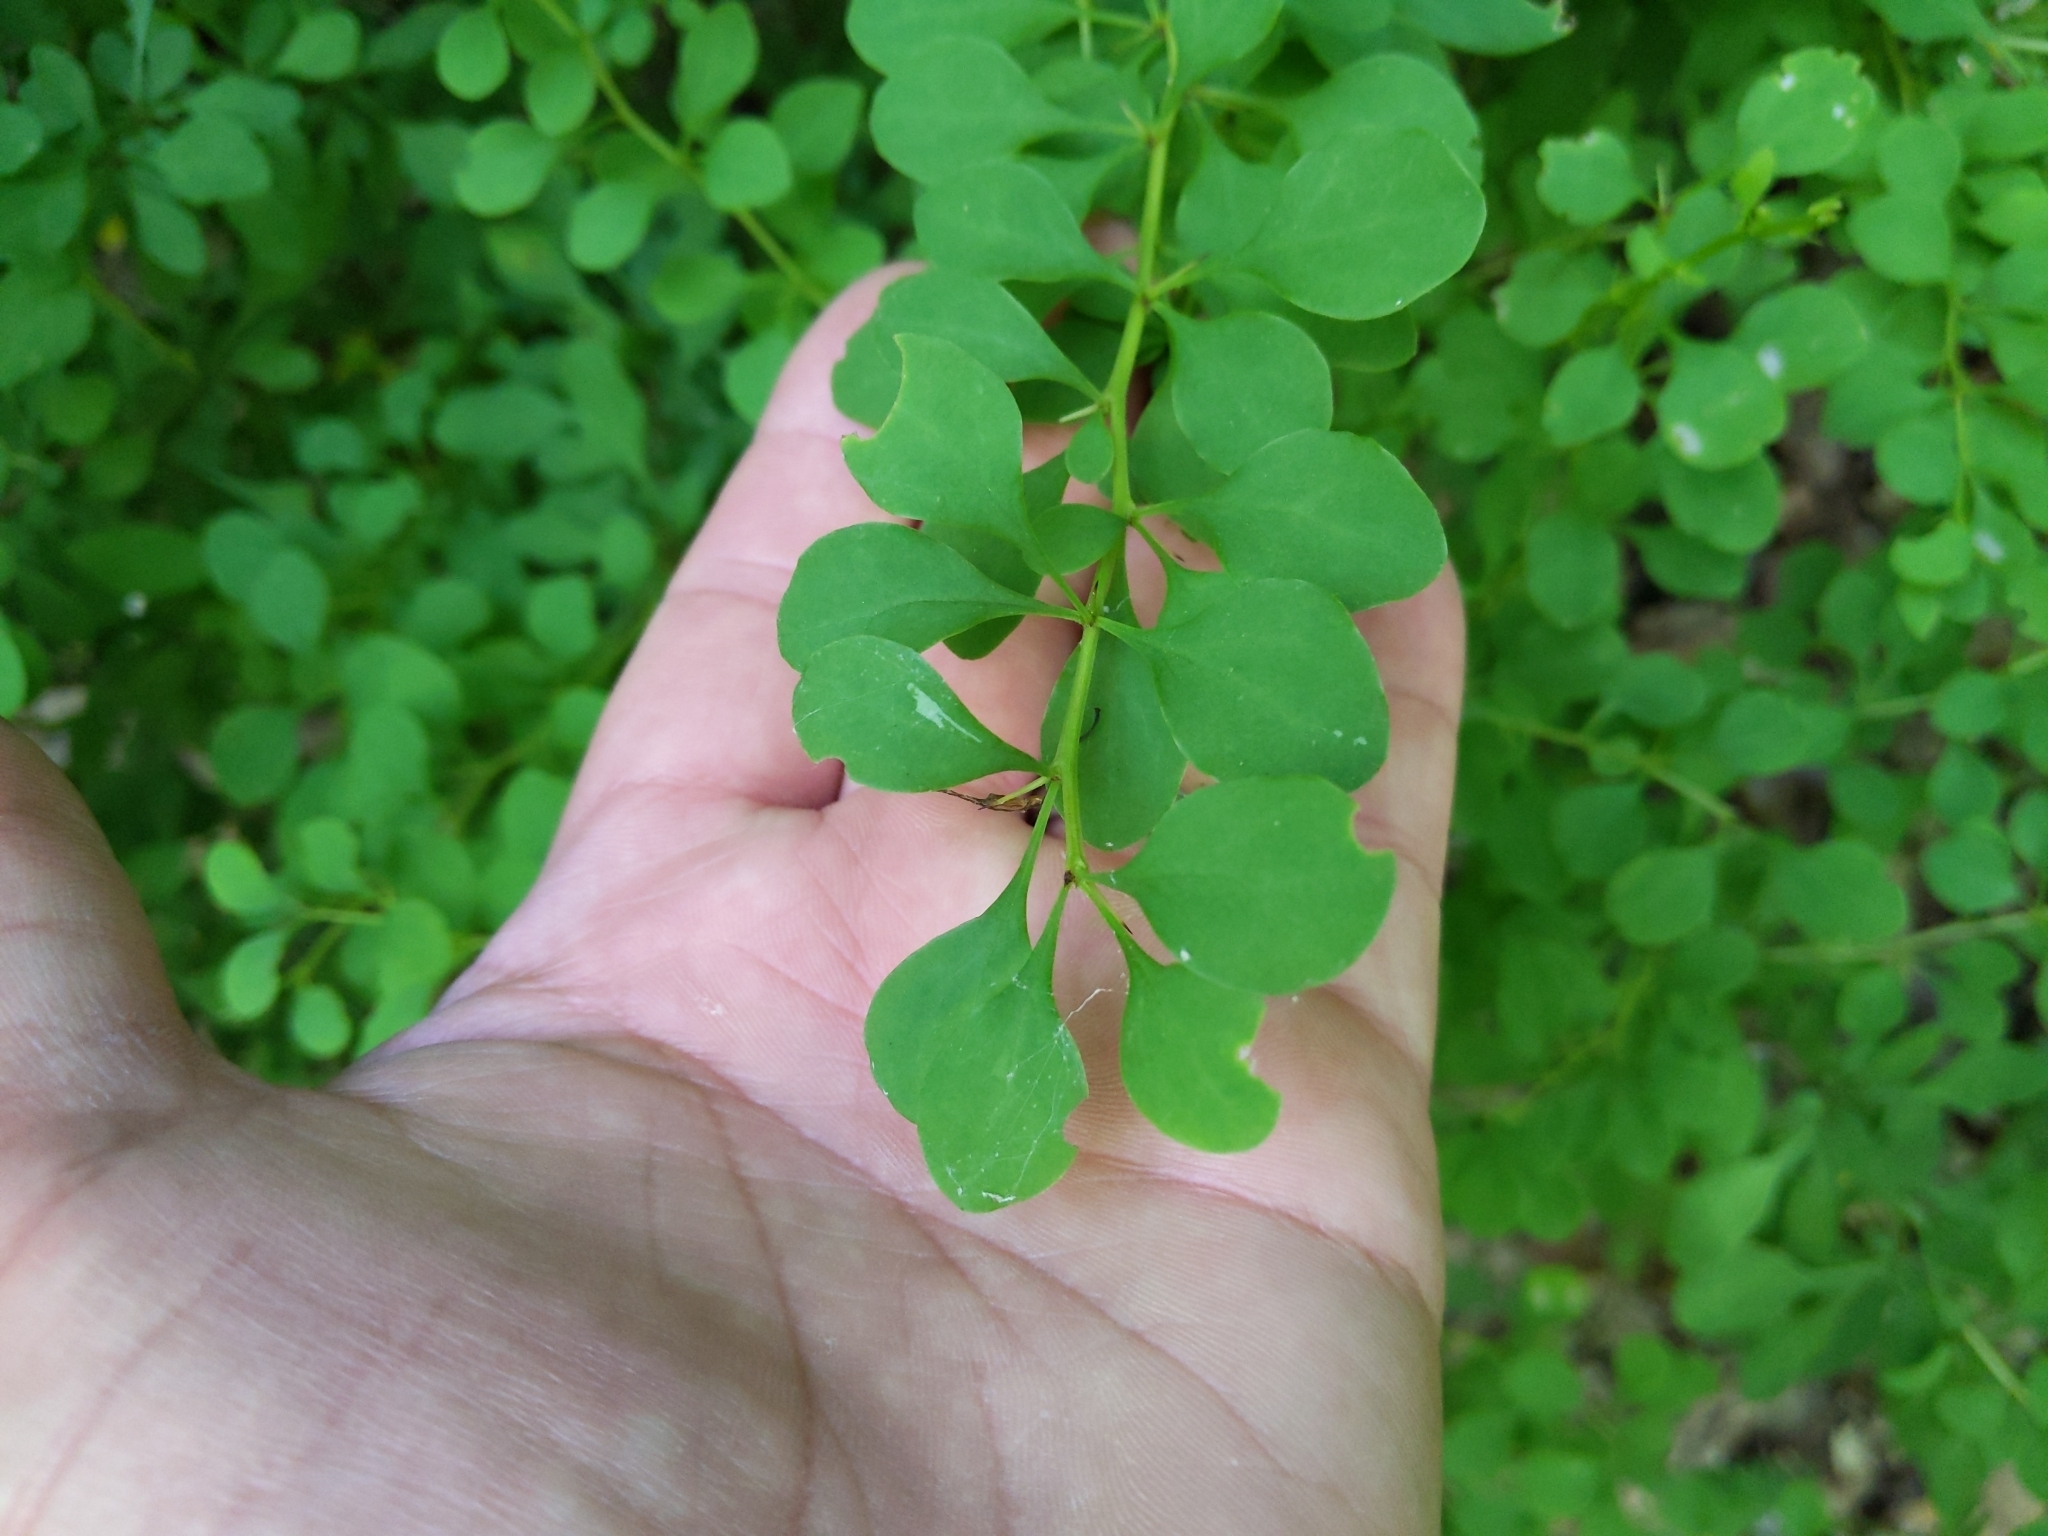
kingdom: Plantae
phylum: Tracheophyta
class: Magnoliopsida
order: Ranunculales
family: Berberidaceae
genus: Berberis
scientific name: Berberis thunbergii
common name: Japanese barberry
